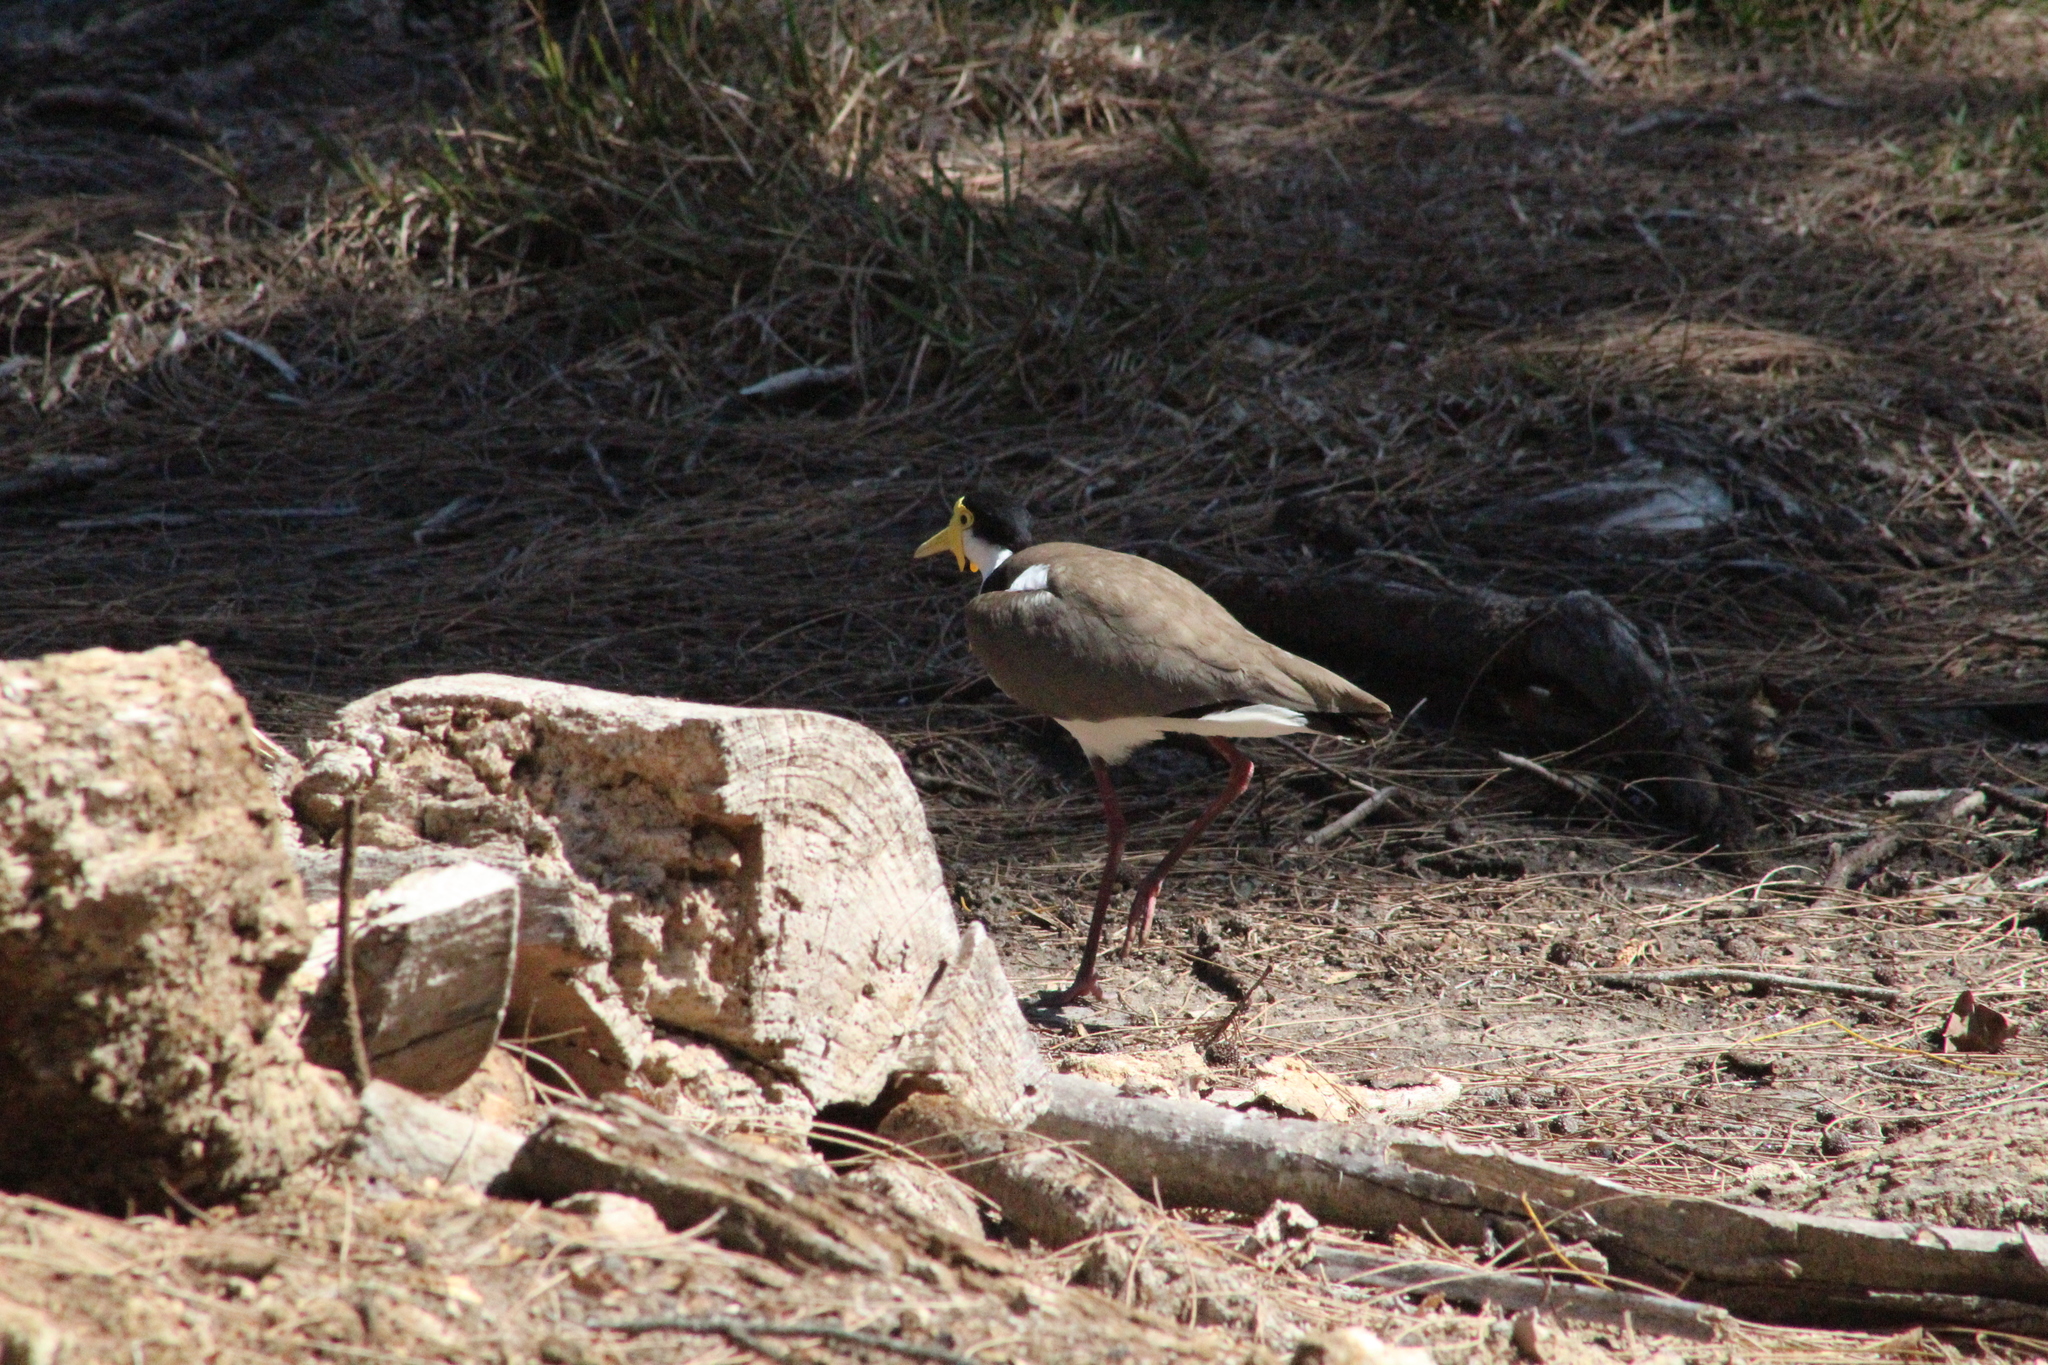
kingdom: Animalia
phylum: Chordata
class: Aves
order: Charadriiformes
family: Charadriidae
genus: Vanellus
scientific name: Vanellus miles
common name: Masked lapwing
